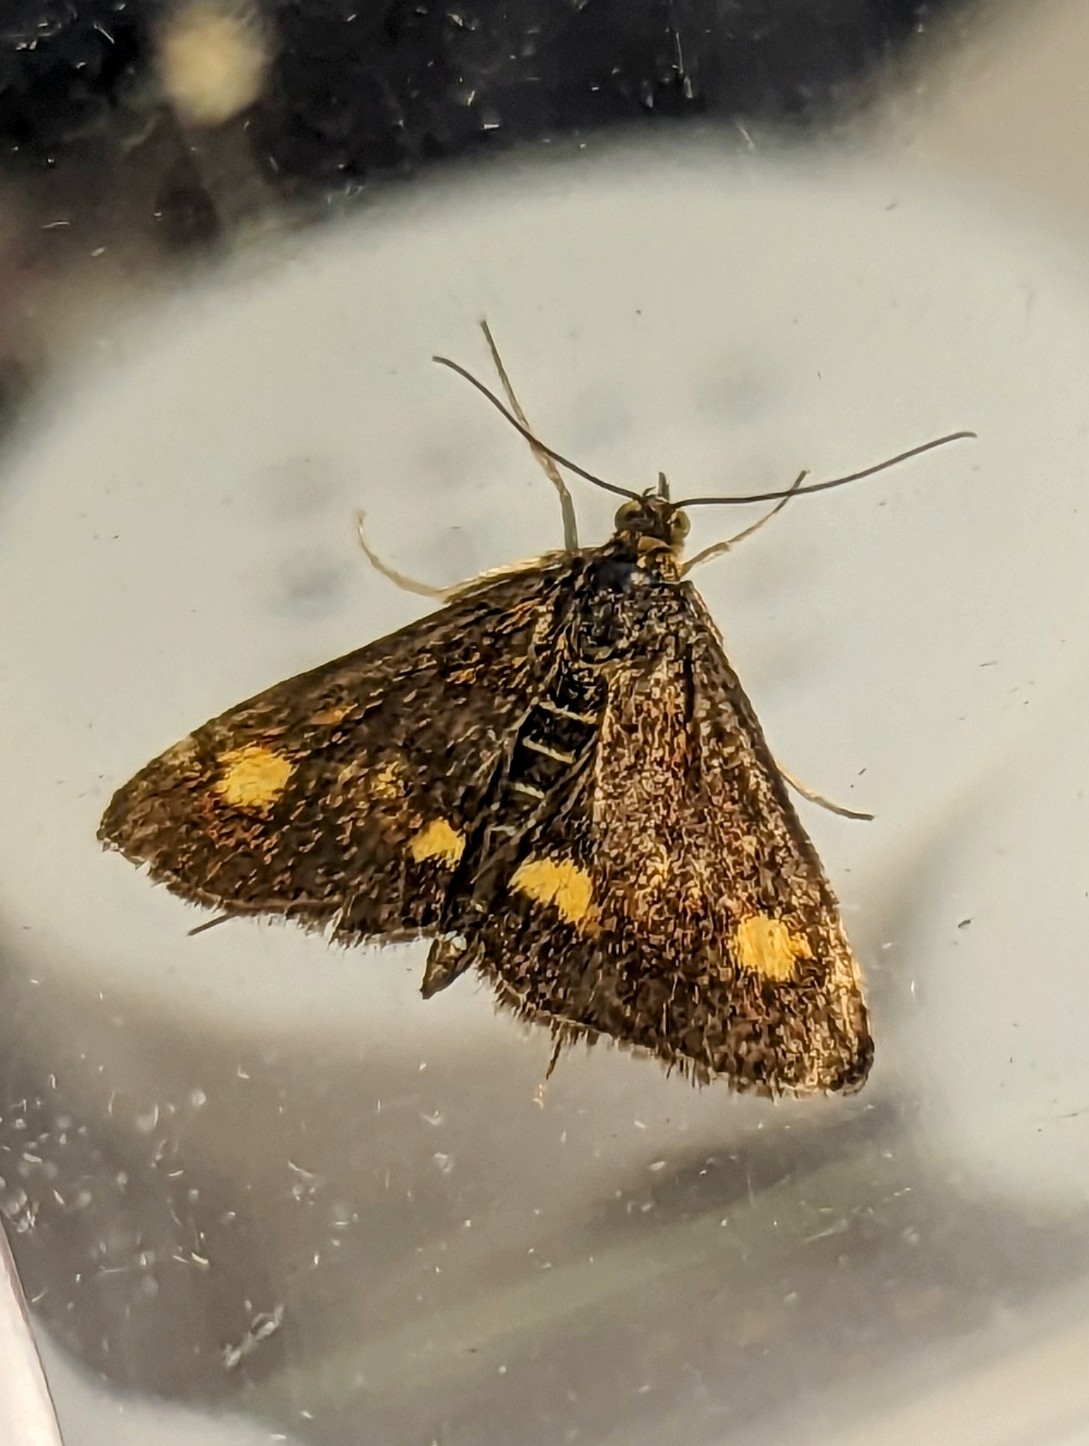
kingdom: Animalia
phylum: Arthropoda
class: Insecta
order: Lepidoptera
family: Crambidae
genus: Pyrausta
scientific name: Pyrausta aurata
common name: Small purple & gold
